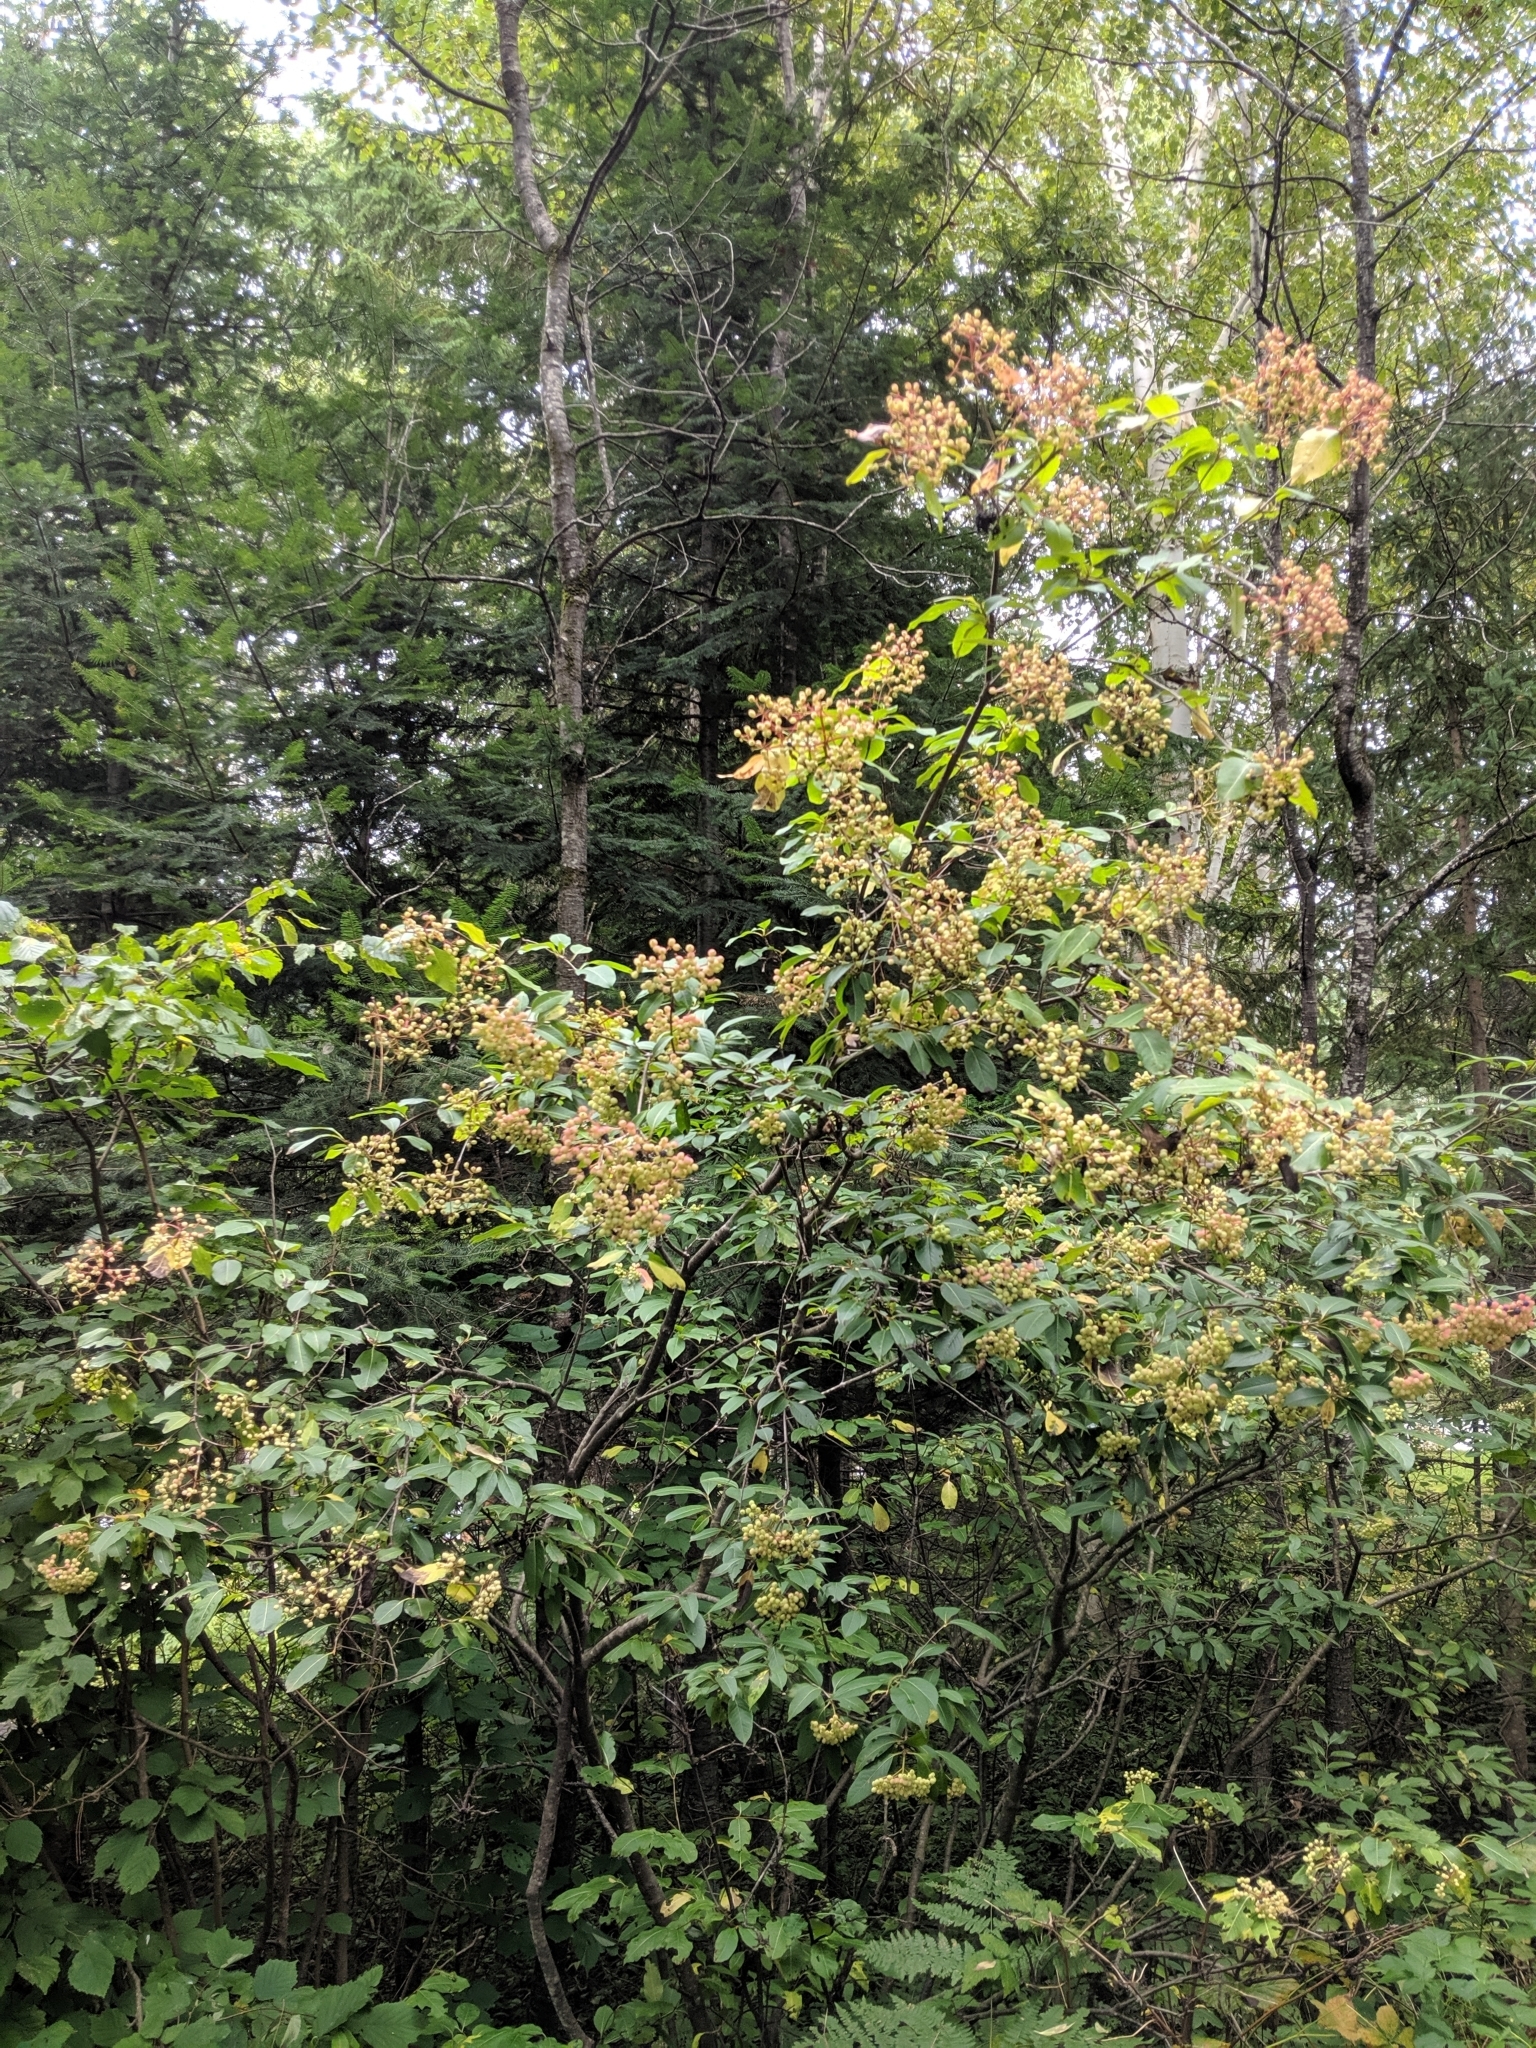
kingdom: Plantae
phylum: Tracheophyta
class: Magnoliopsida
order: Dipsacales
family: Viburnaceae
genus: Viburnum
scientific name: Viburnum cassinoides
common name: Swamp haw
